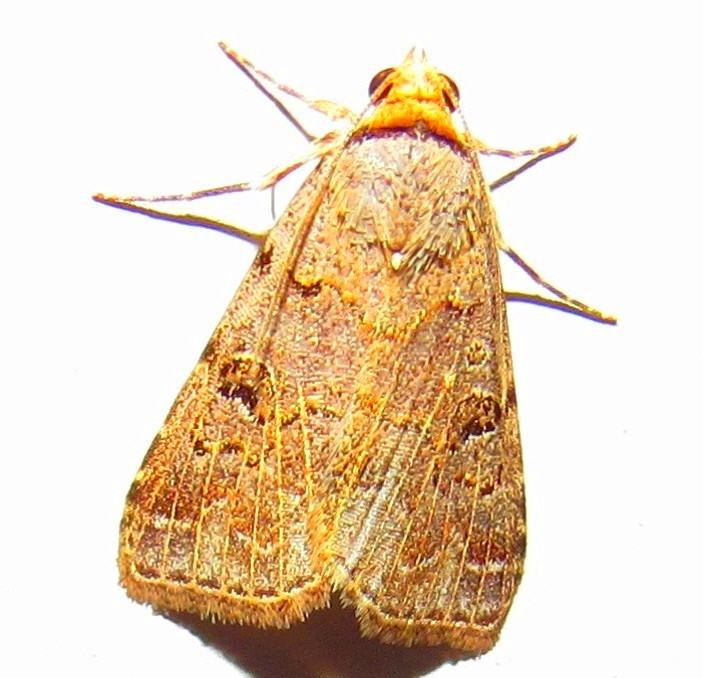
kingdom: Animalia
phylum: Arthropoda
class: Insecta
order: Lepidoptera
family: Erebidae
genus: Glympis
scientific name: Glympis concors
